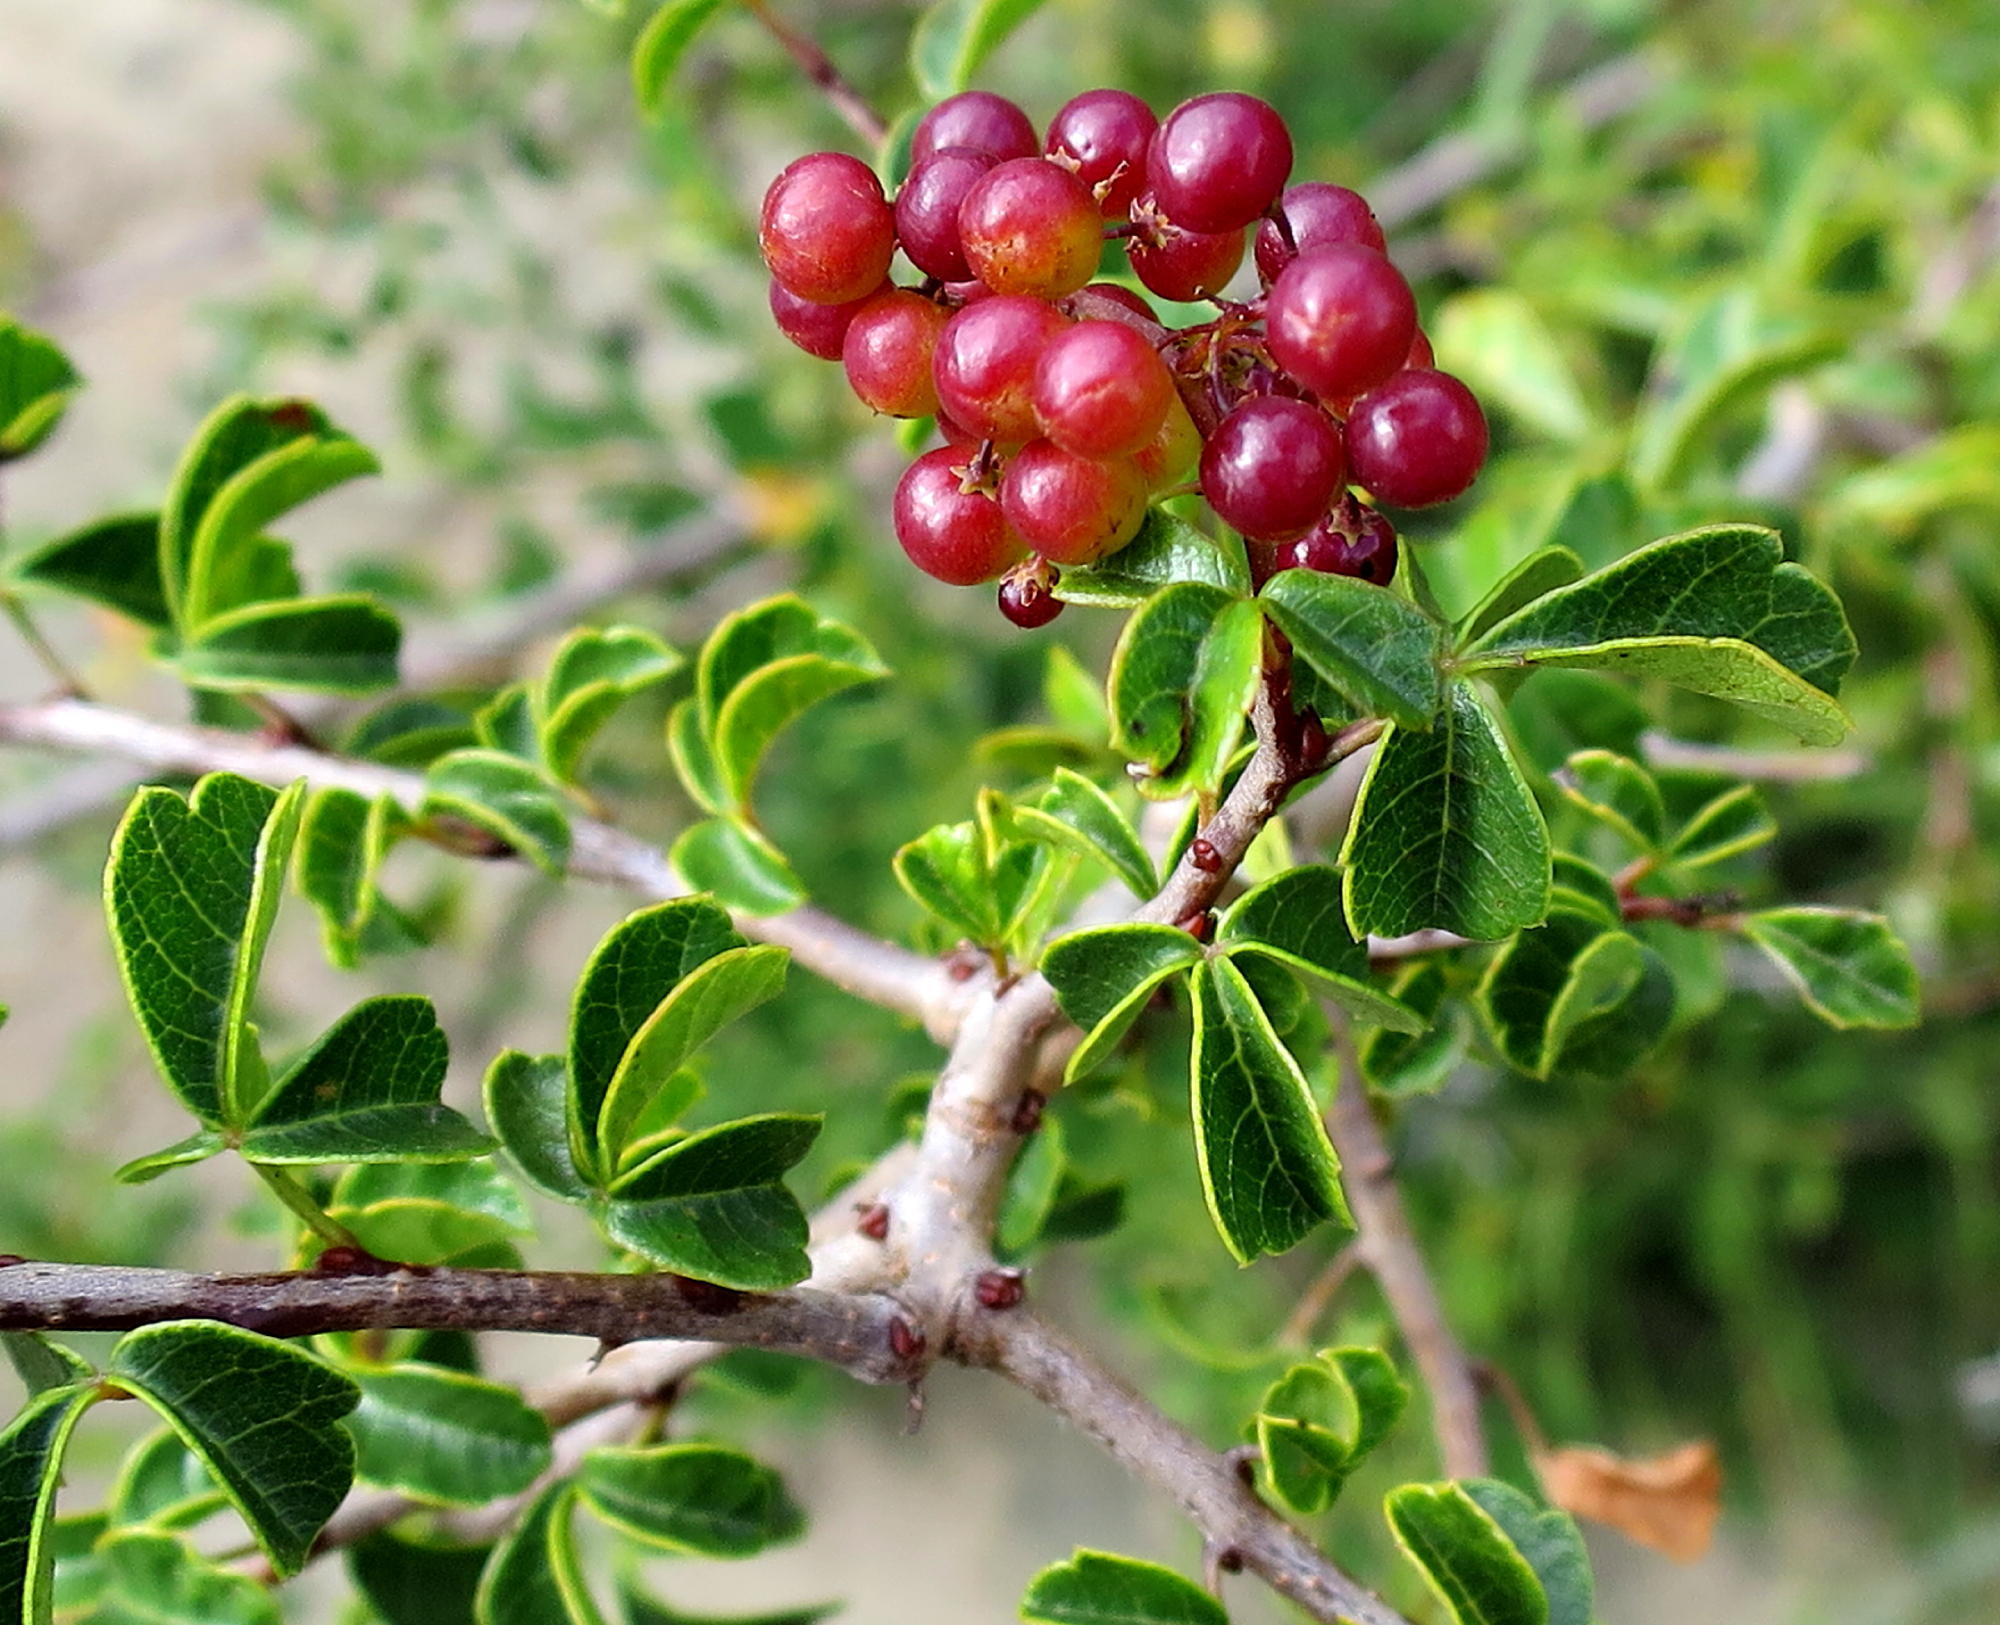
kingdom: Plantae
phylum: Tracheophyta
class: Magnoliopsida
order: Sapindales
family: Anacardiaceae
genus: Searsia
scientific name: Searsia dentata
